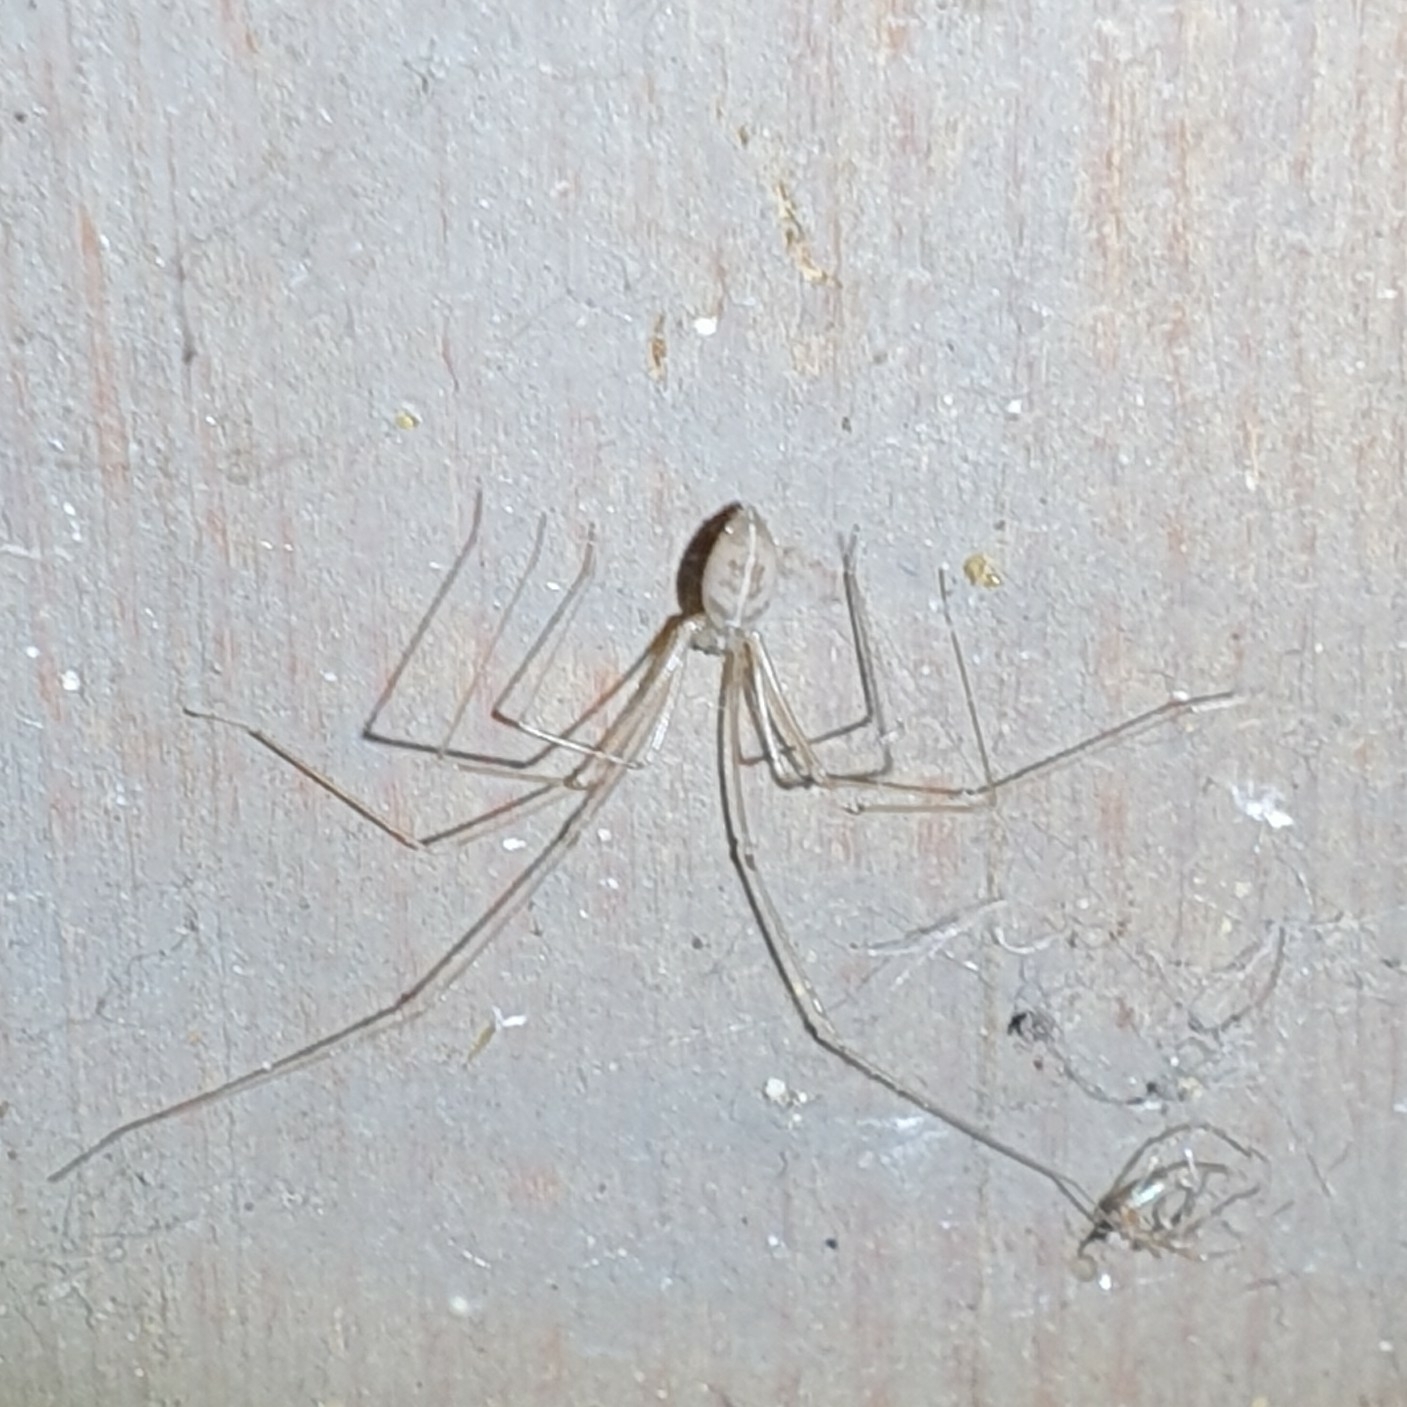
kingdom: Animalia
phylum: Arthropoda
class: Arachnida
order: Araneae
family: Pholcidae
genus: Pholcus
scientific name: Pholcus phalangioides
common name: Longbodied cellar spider
